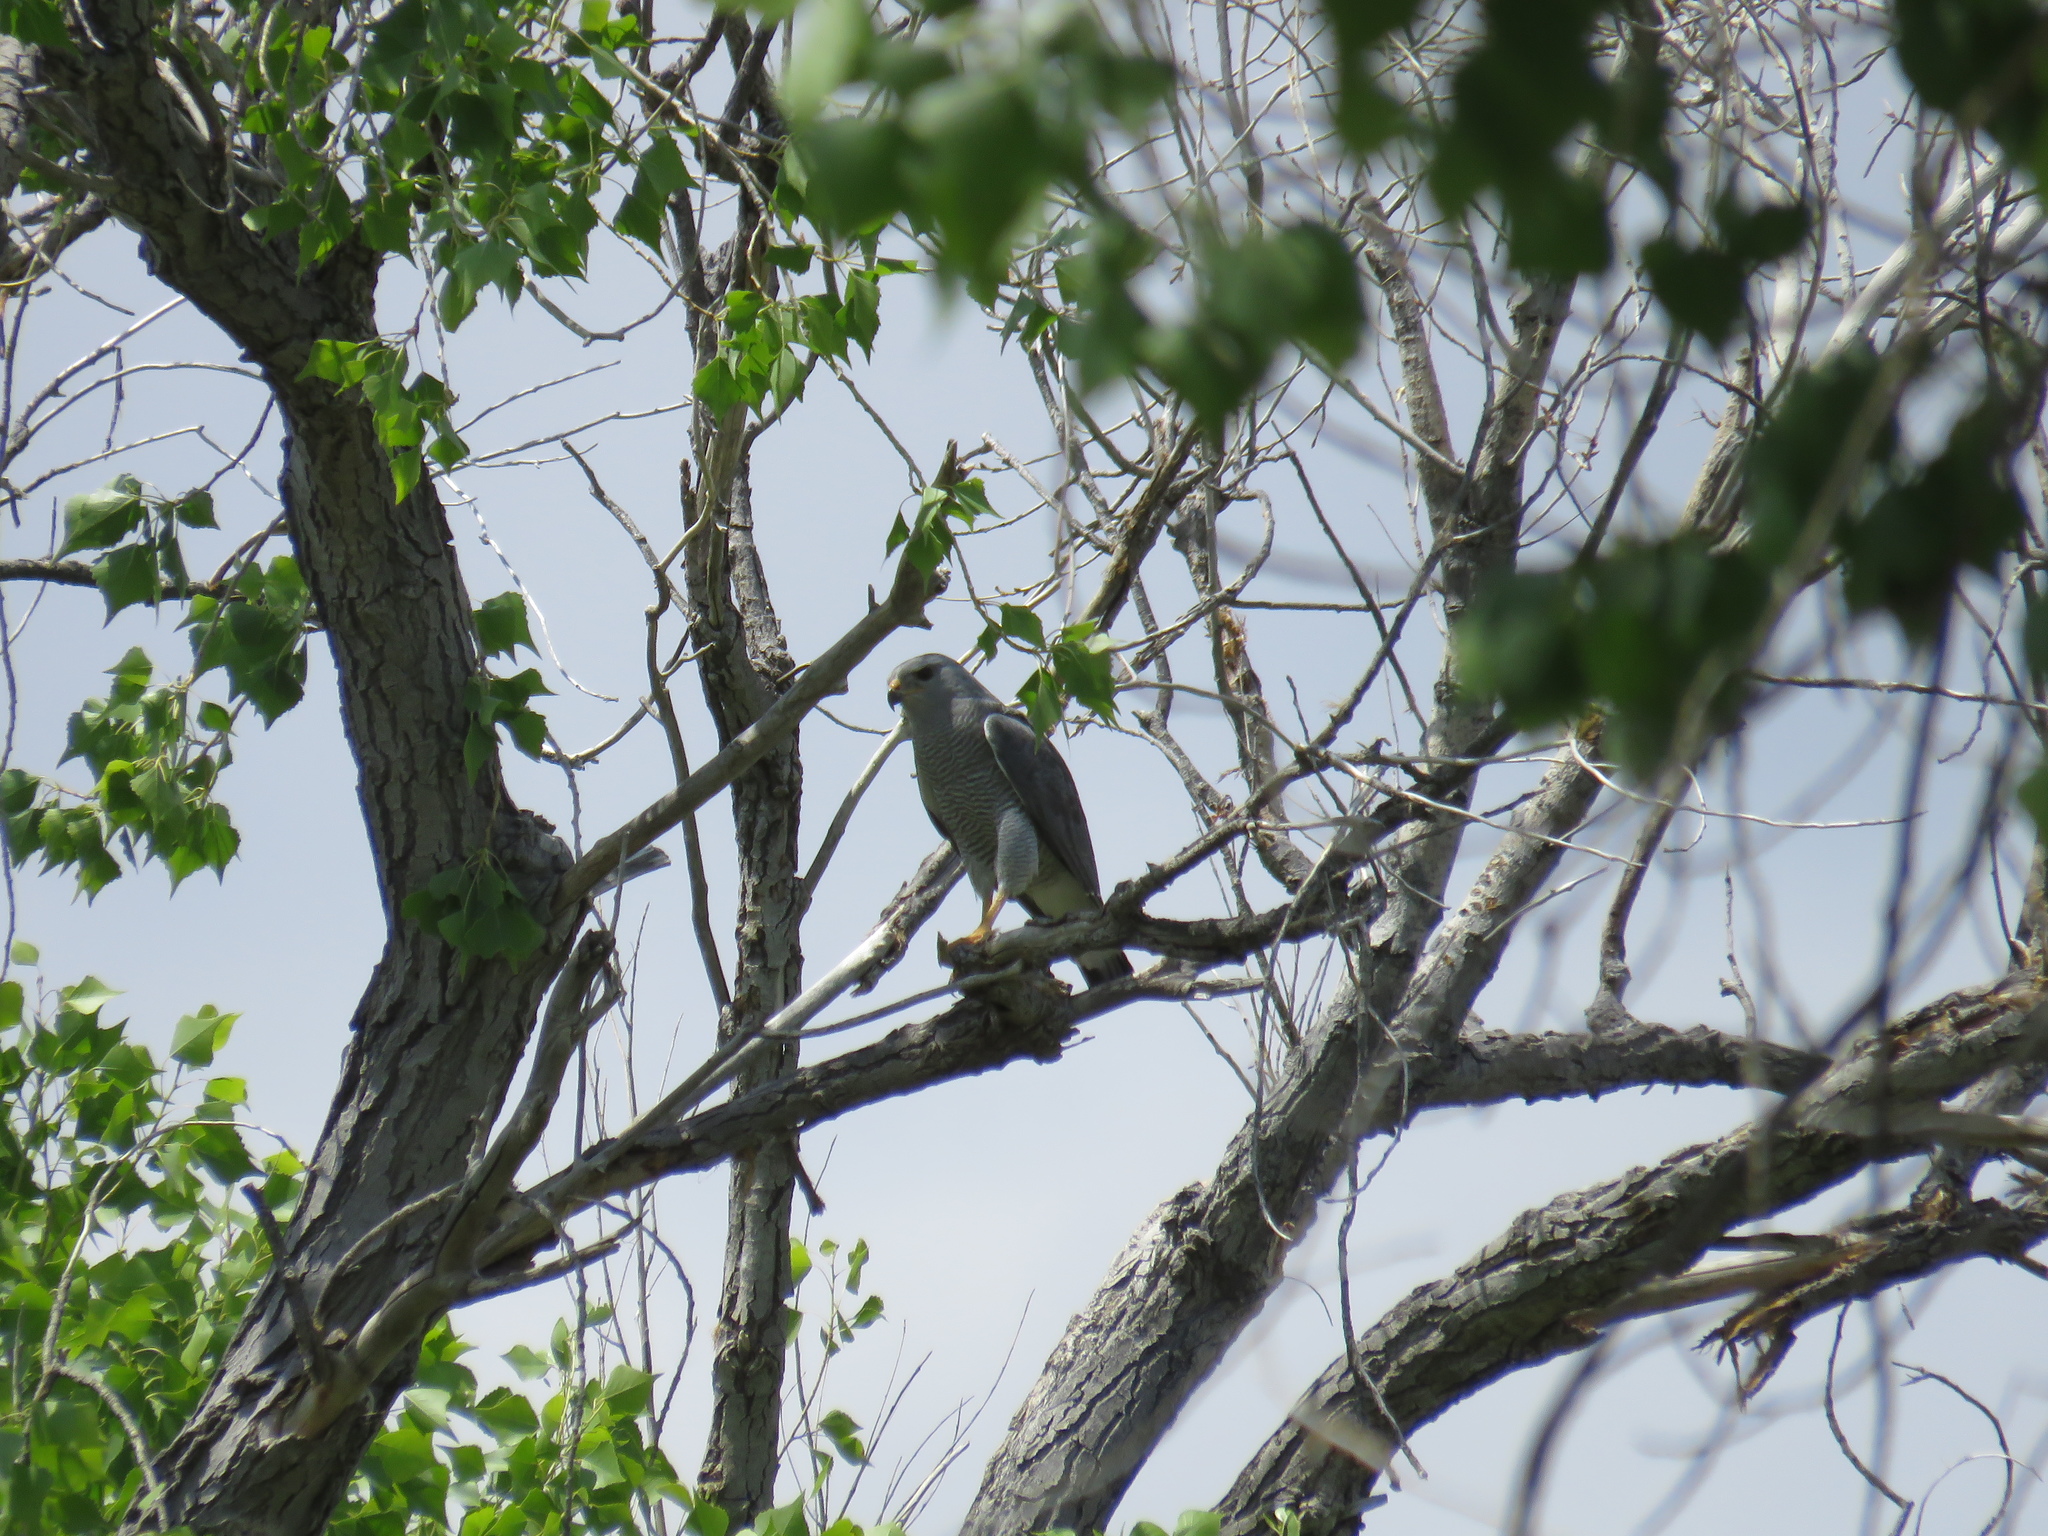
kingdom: Animalia
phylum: Chordata
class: Aves
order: Accipitriformes
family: Accipitridae
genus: Buteo
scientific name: Buteo nitidus
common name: Grey-lined hawk
